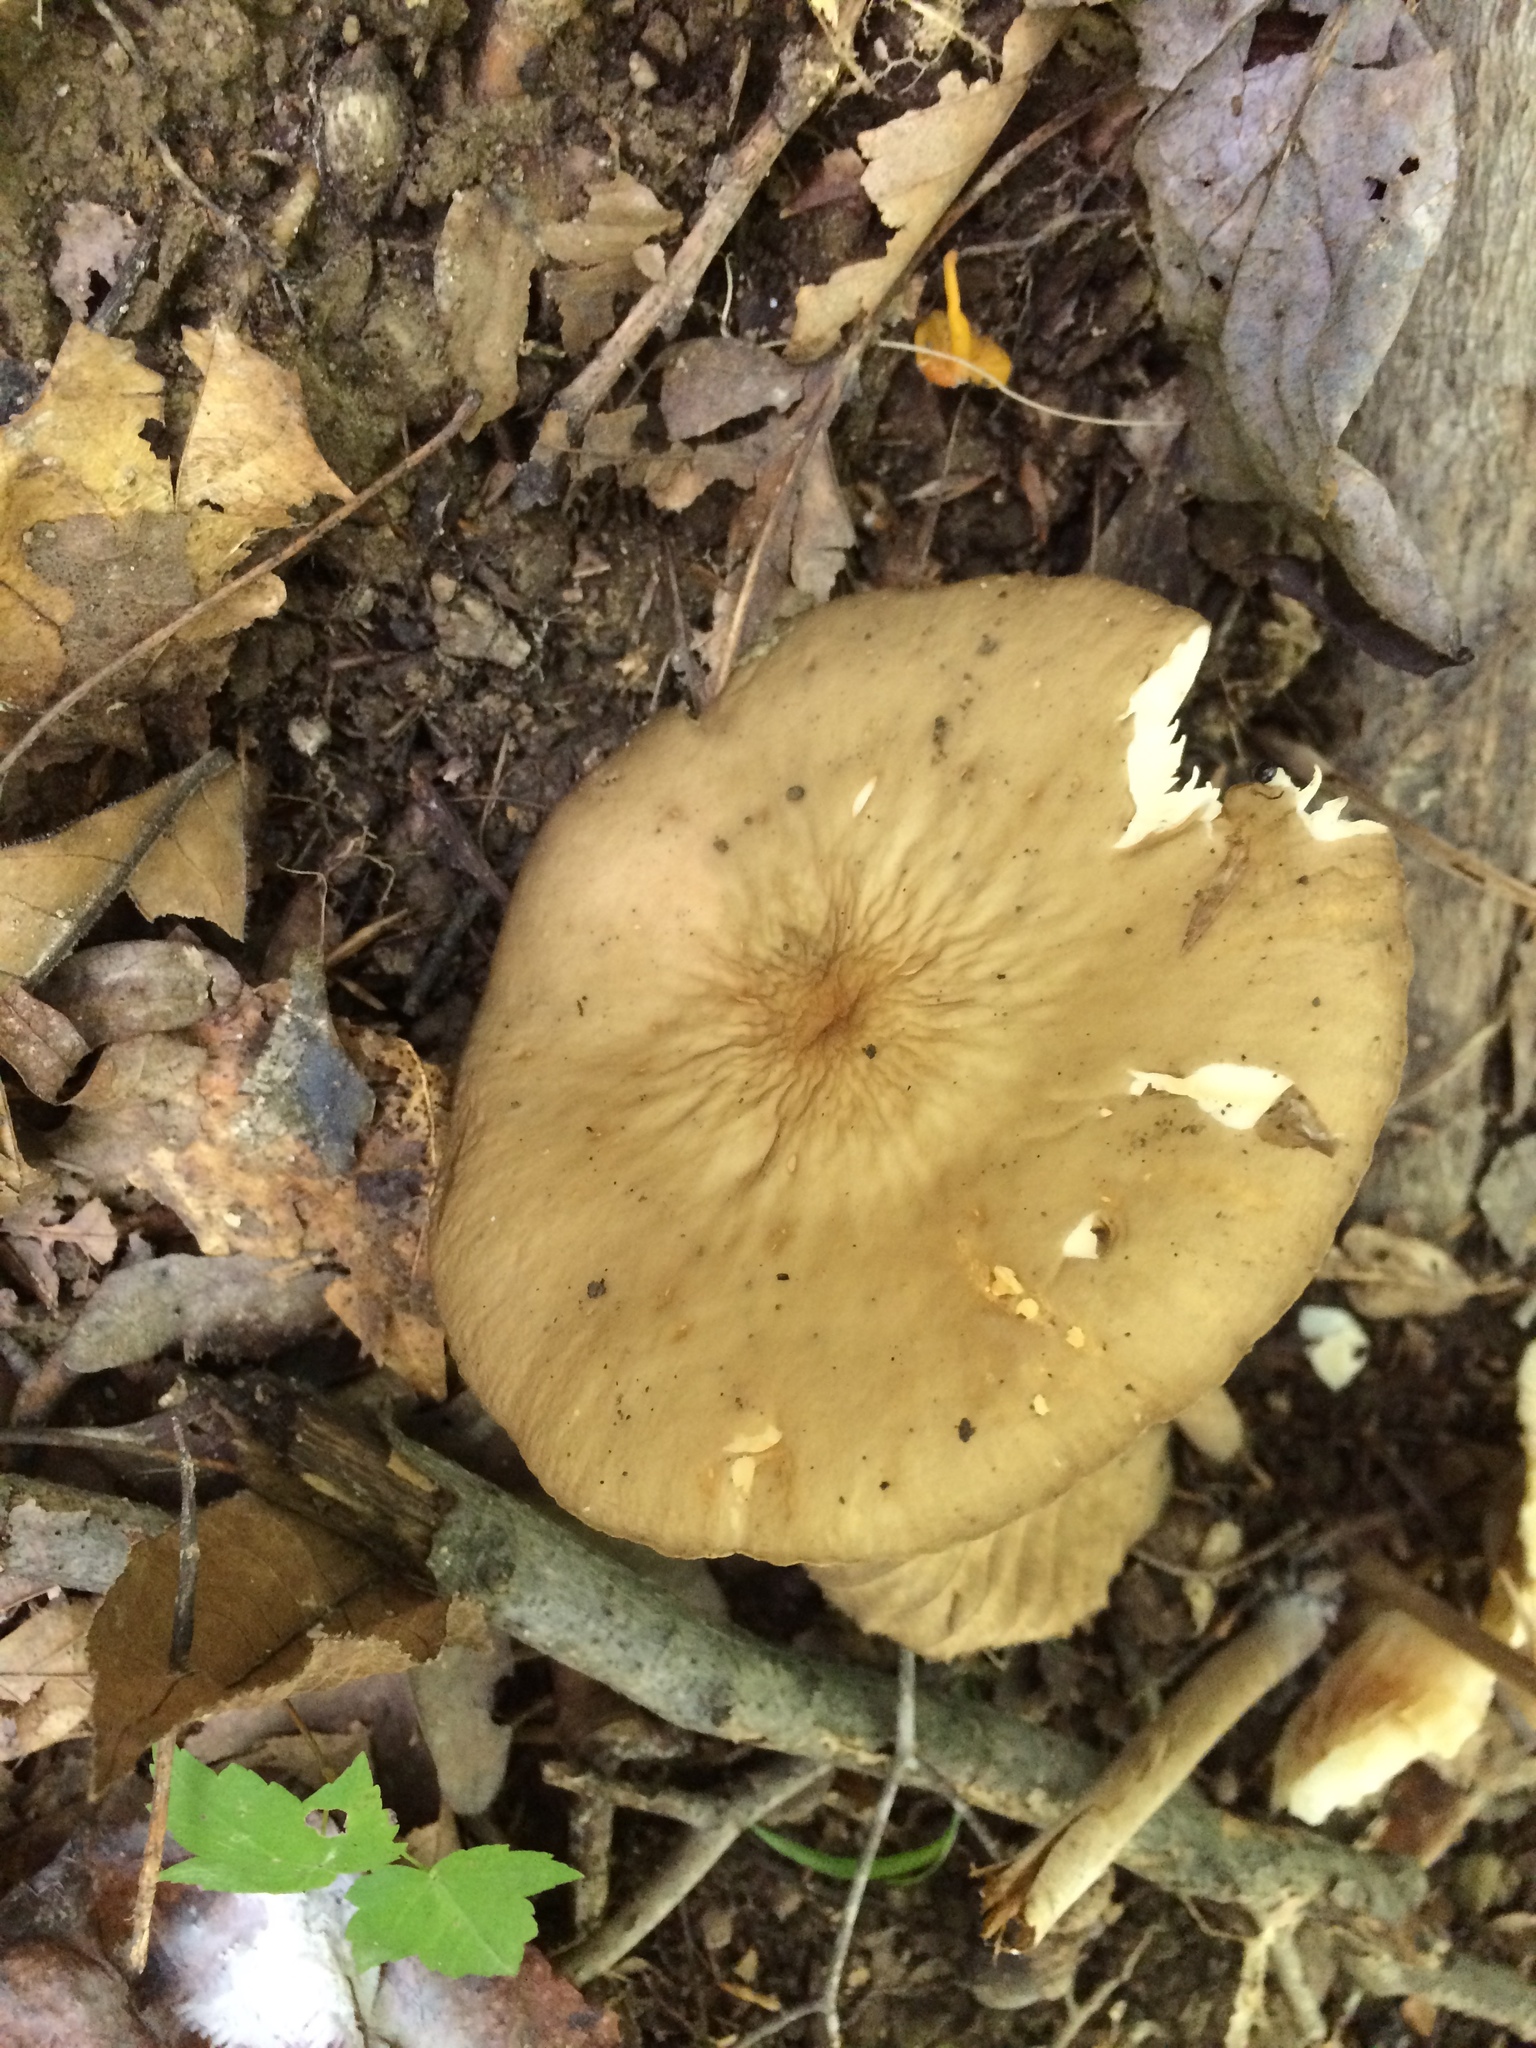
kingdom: Fungi
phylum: Basidiomycota
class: Agaricomycetes
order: Agaricales
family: Physalacriaceae
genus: Hymenopellis
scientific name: Hymenopellis furfuracea
